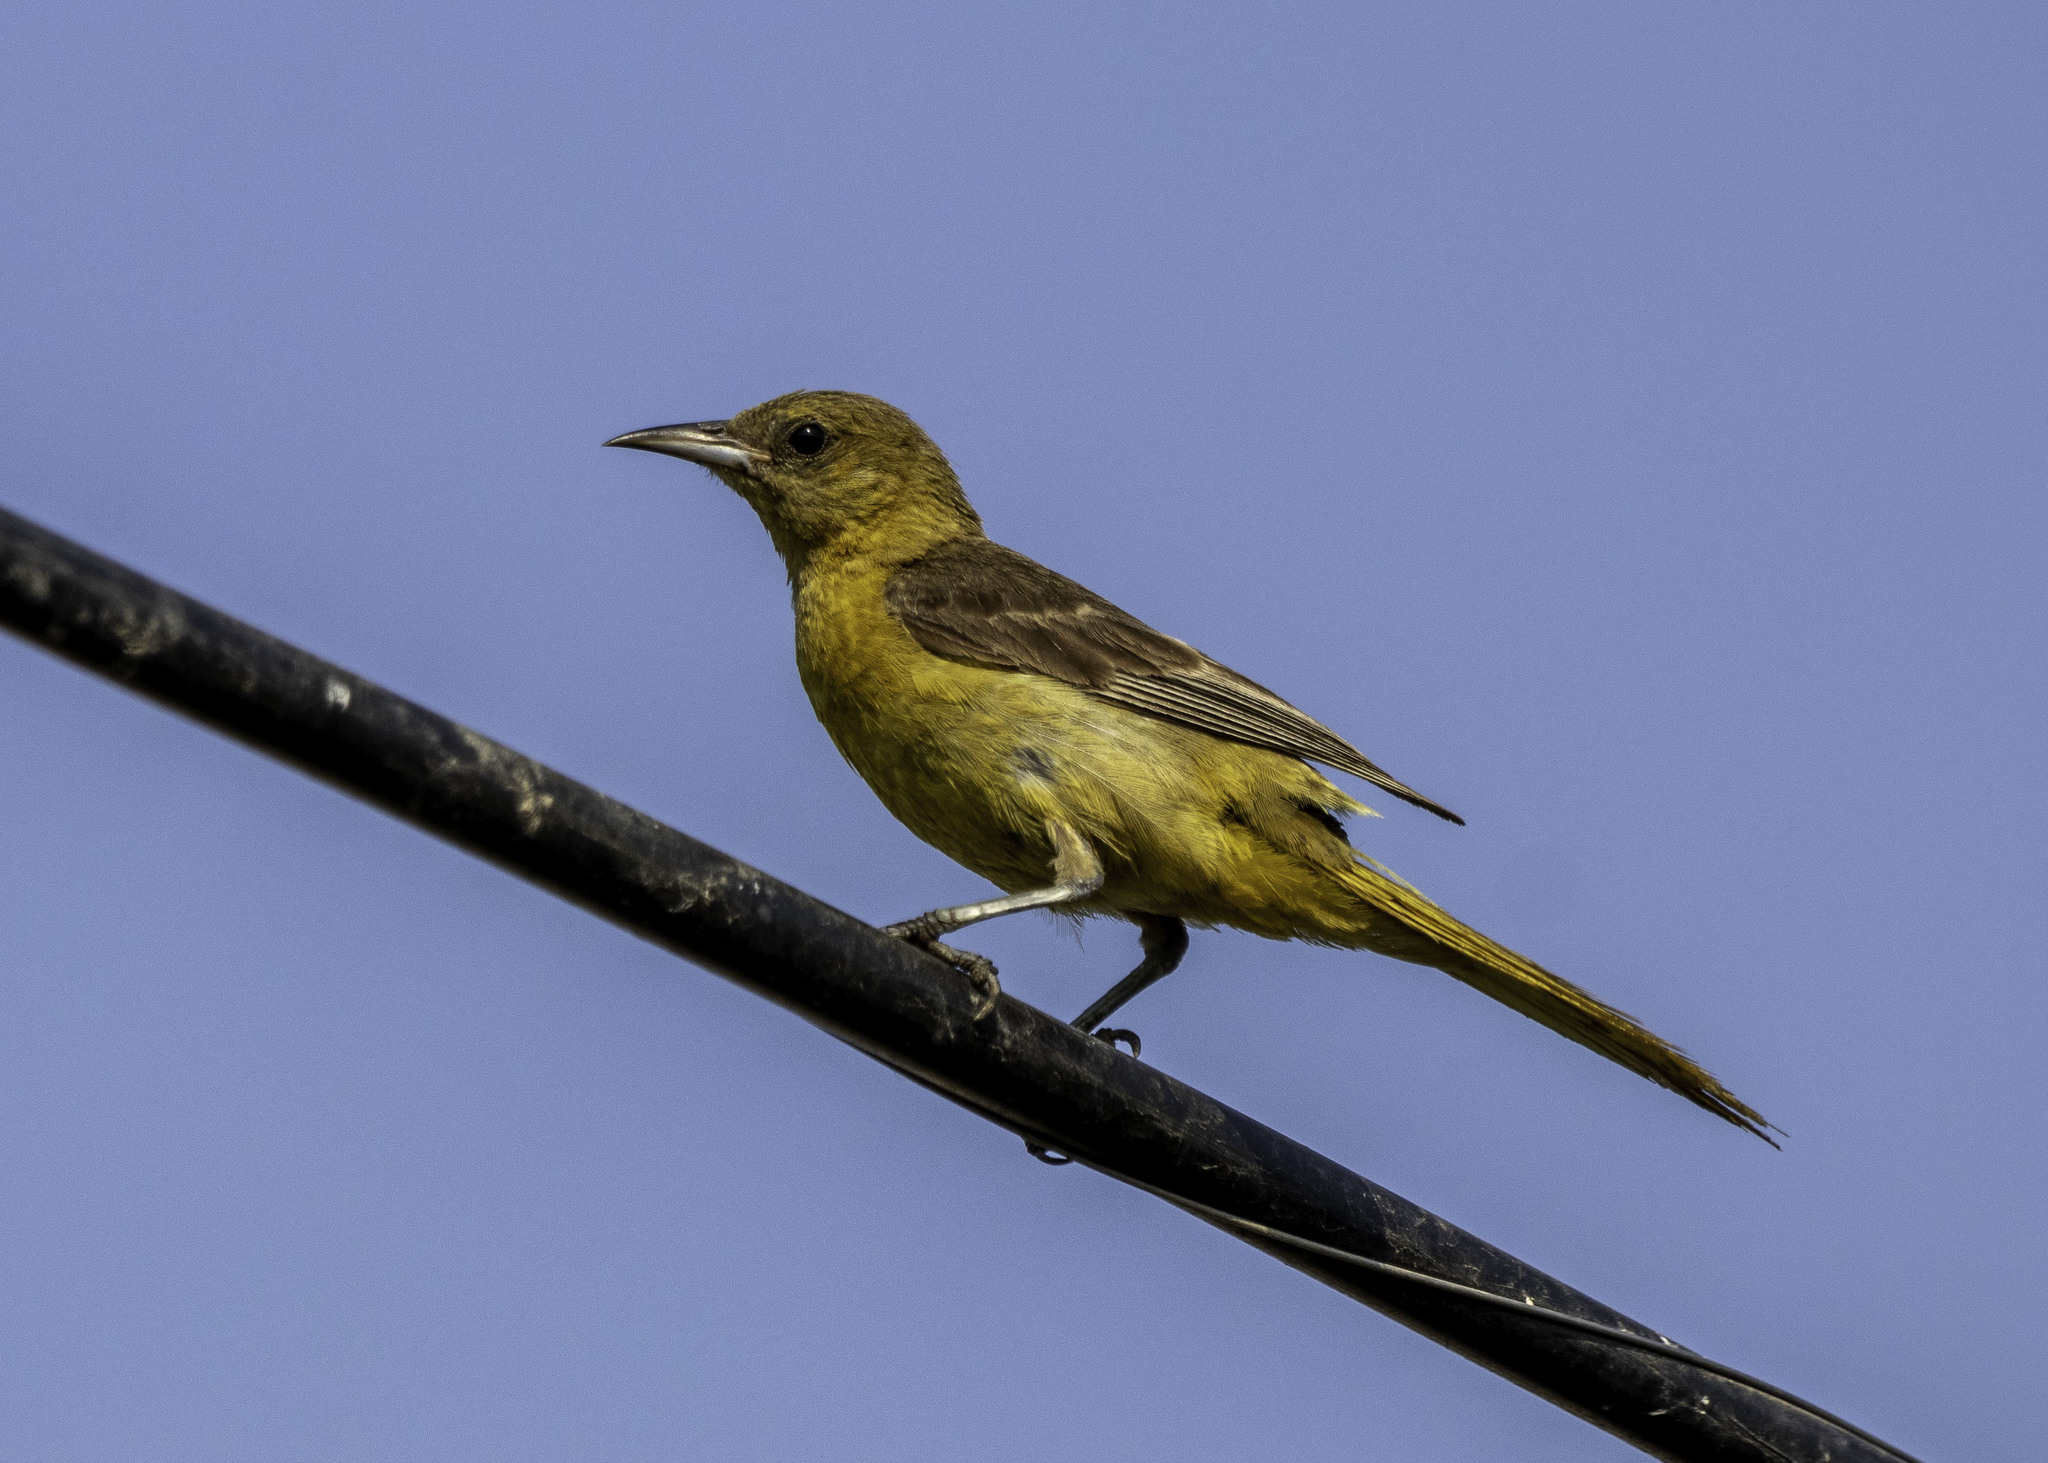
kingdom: Animalia
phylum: Chordata
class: Aves
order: Passeriformes
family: Icteridae
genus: Icterus
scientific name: Icterus cucullatus
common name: Hooded oriole
